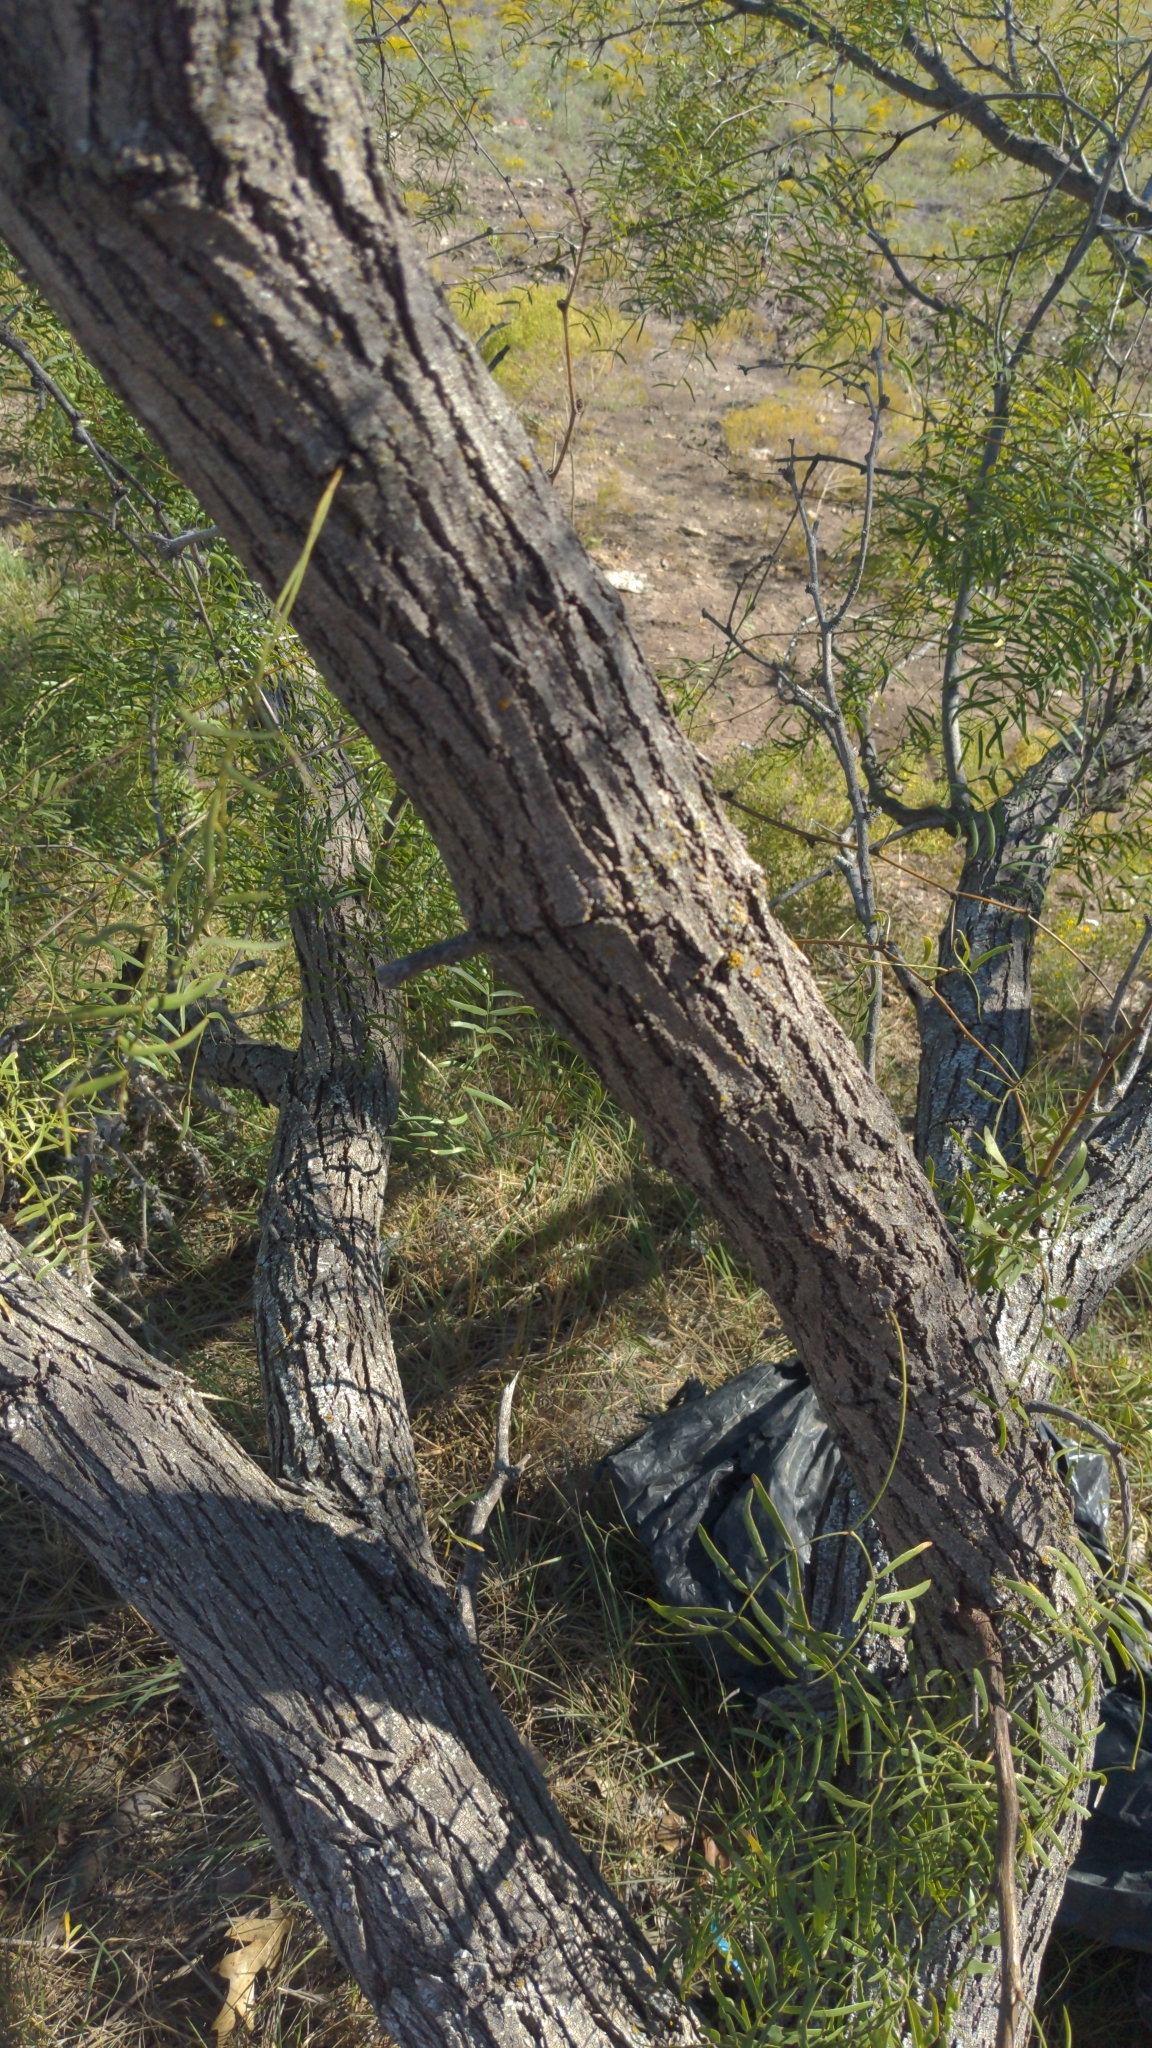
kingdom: Plantae
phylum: Tracheophyta
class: Magnoliopsida
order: Fabales
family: Fabaceae
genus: Prosopis
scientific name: Prosopis glandulosa
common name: Honey mesquite
